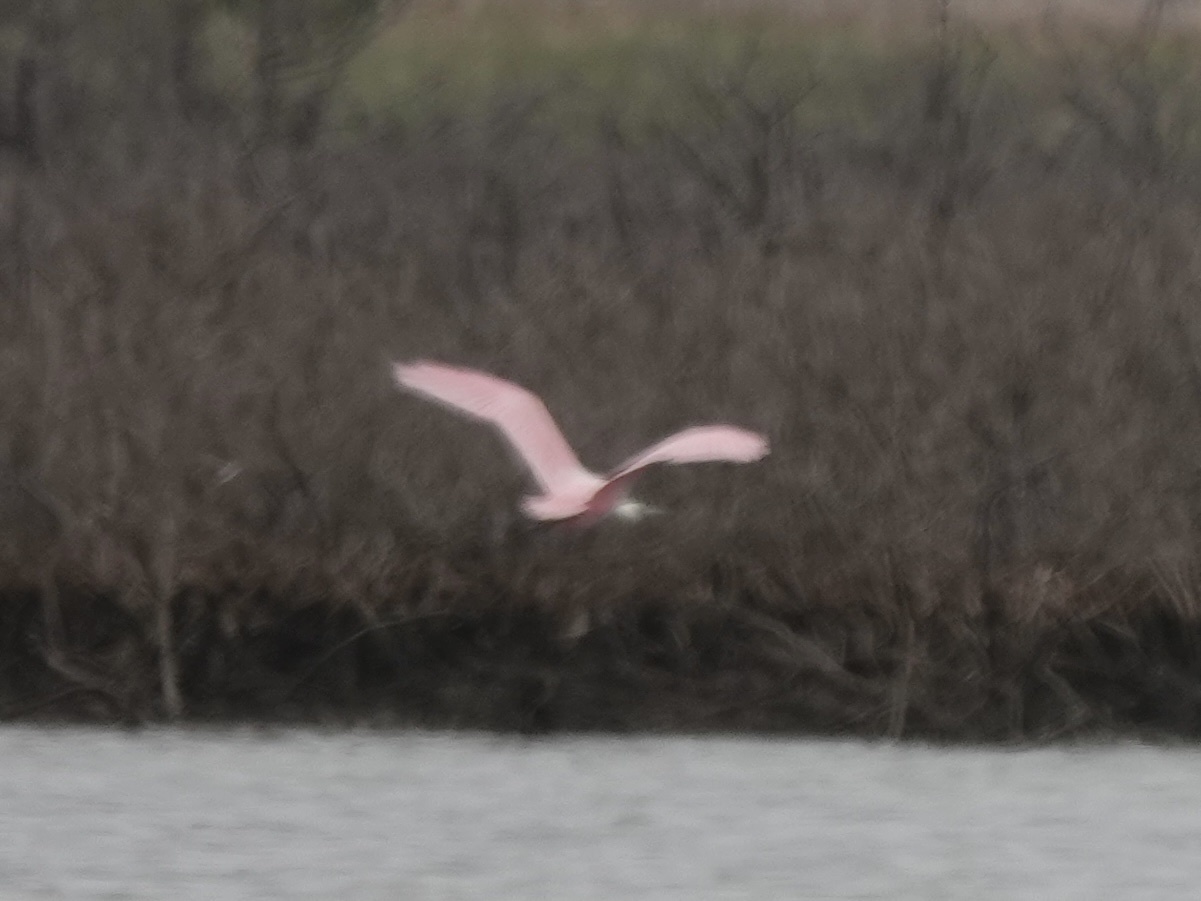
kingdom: Animalia
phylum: Chordata
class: Aves
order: Pelecaniformes
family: Threskiornithidae
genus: Platalea
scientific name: Platalea ajaja
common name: Roseate spoonbill
